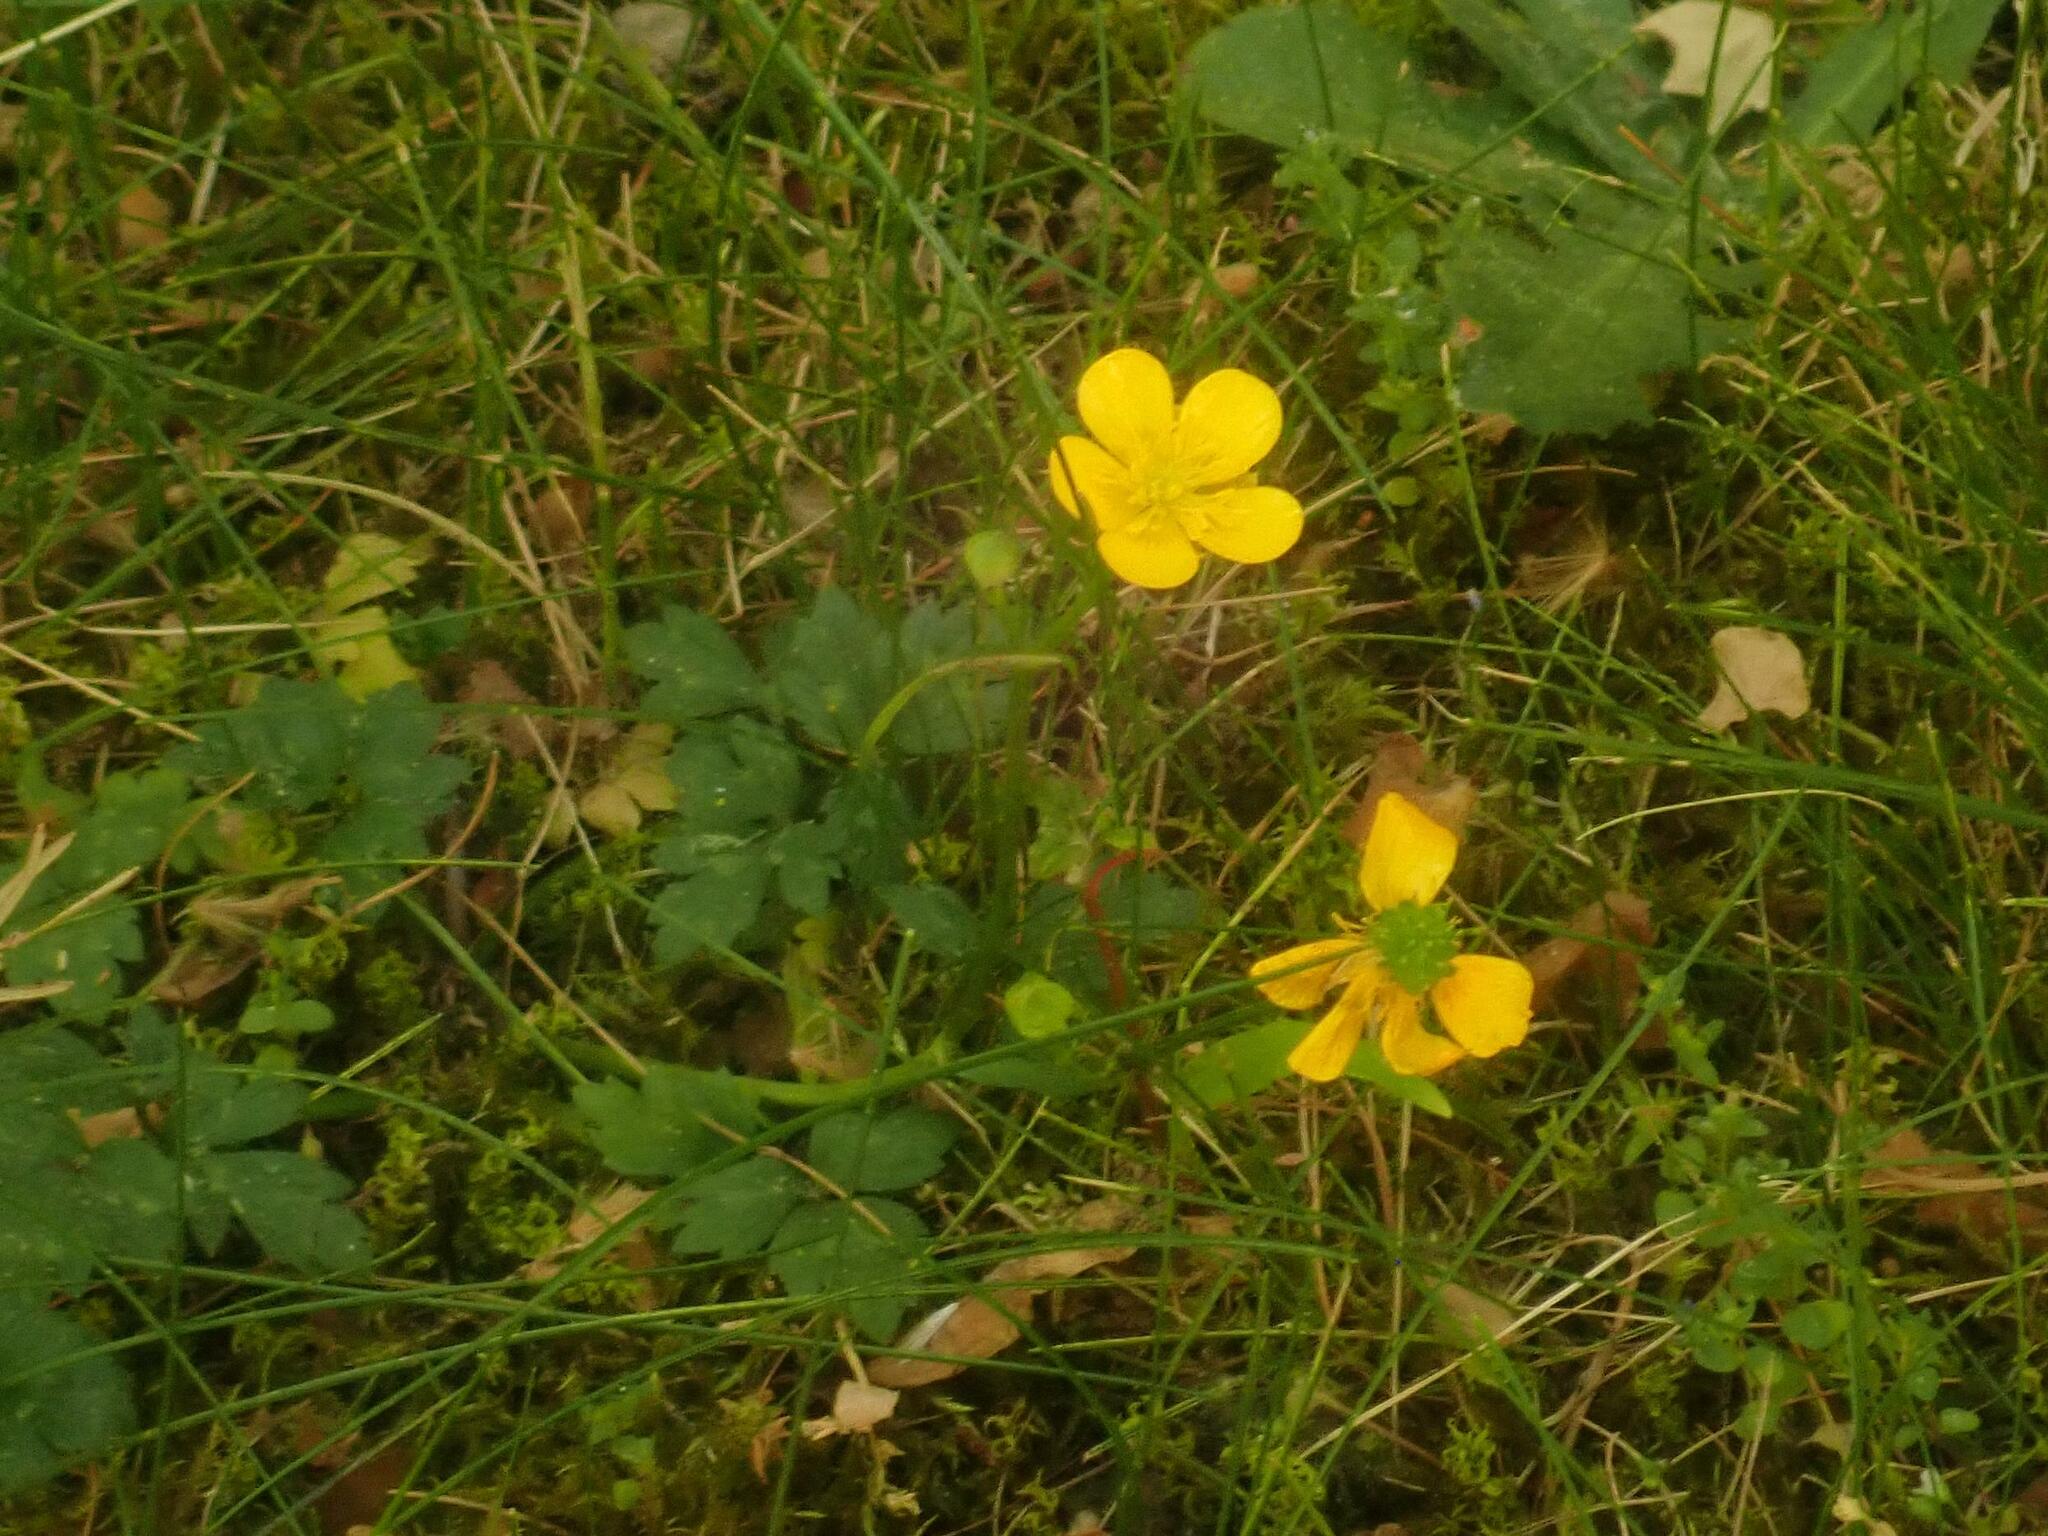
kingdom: Plantae
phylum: Tracheophyta
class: Magnoliopsida
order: Ranunculales
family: Ranunculaceae
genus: Ranunculus
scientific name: Ranunculus repens
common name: Creeping buttercup
